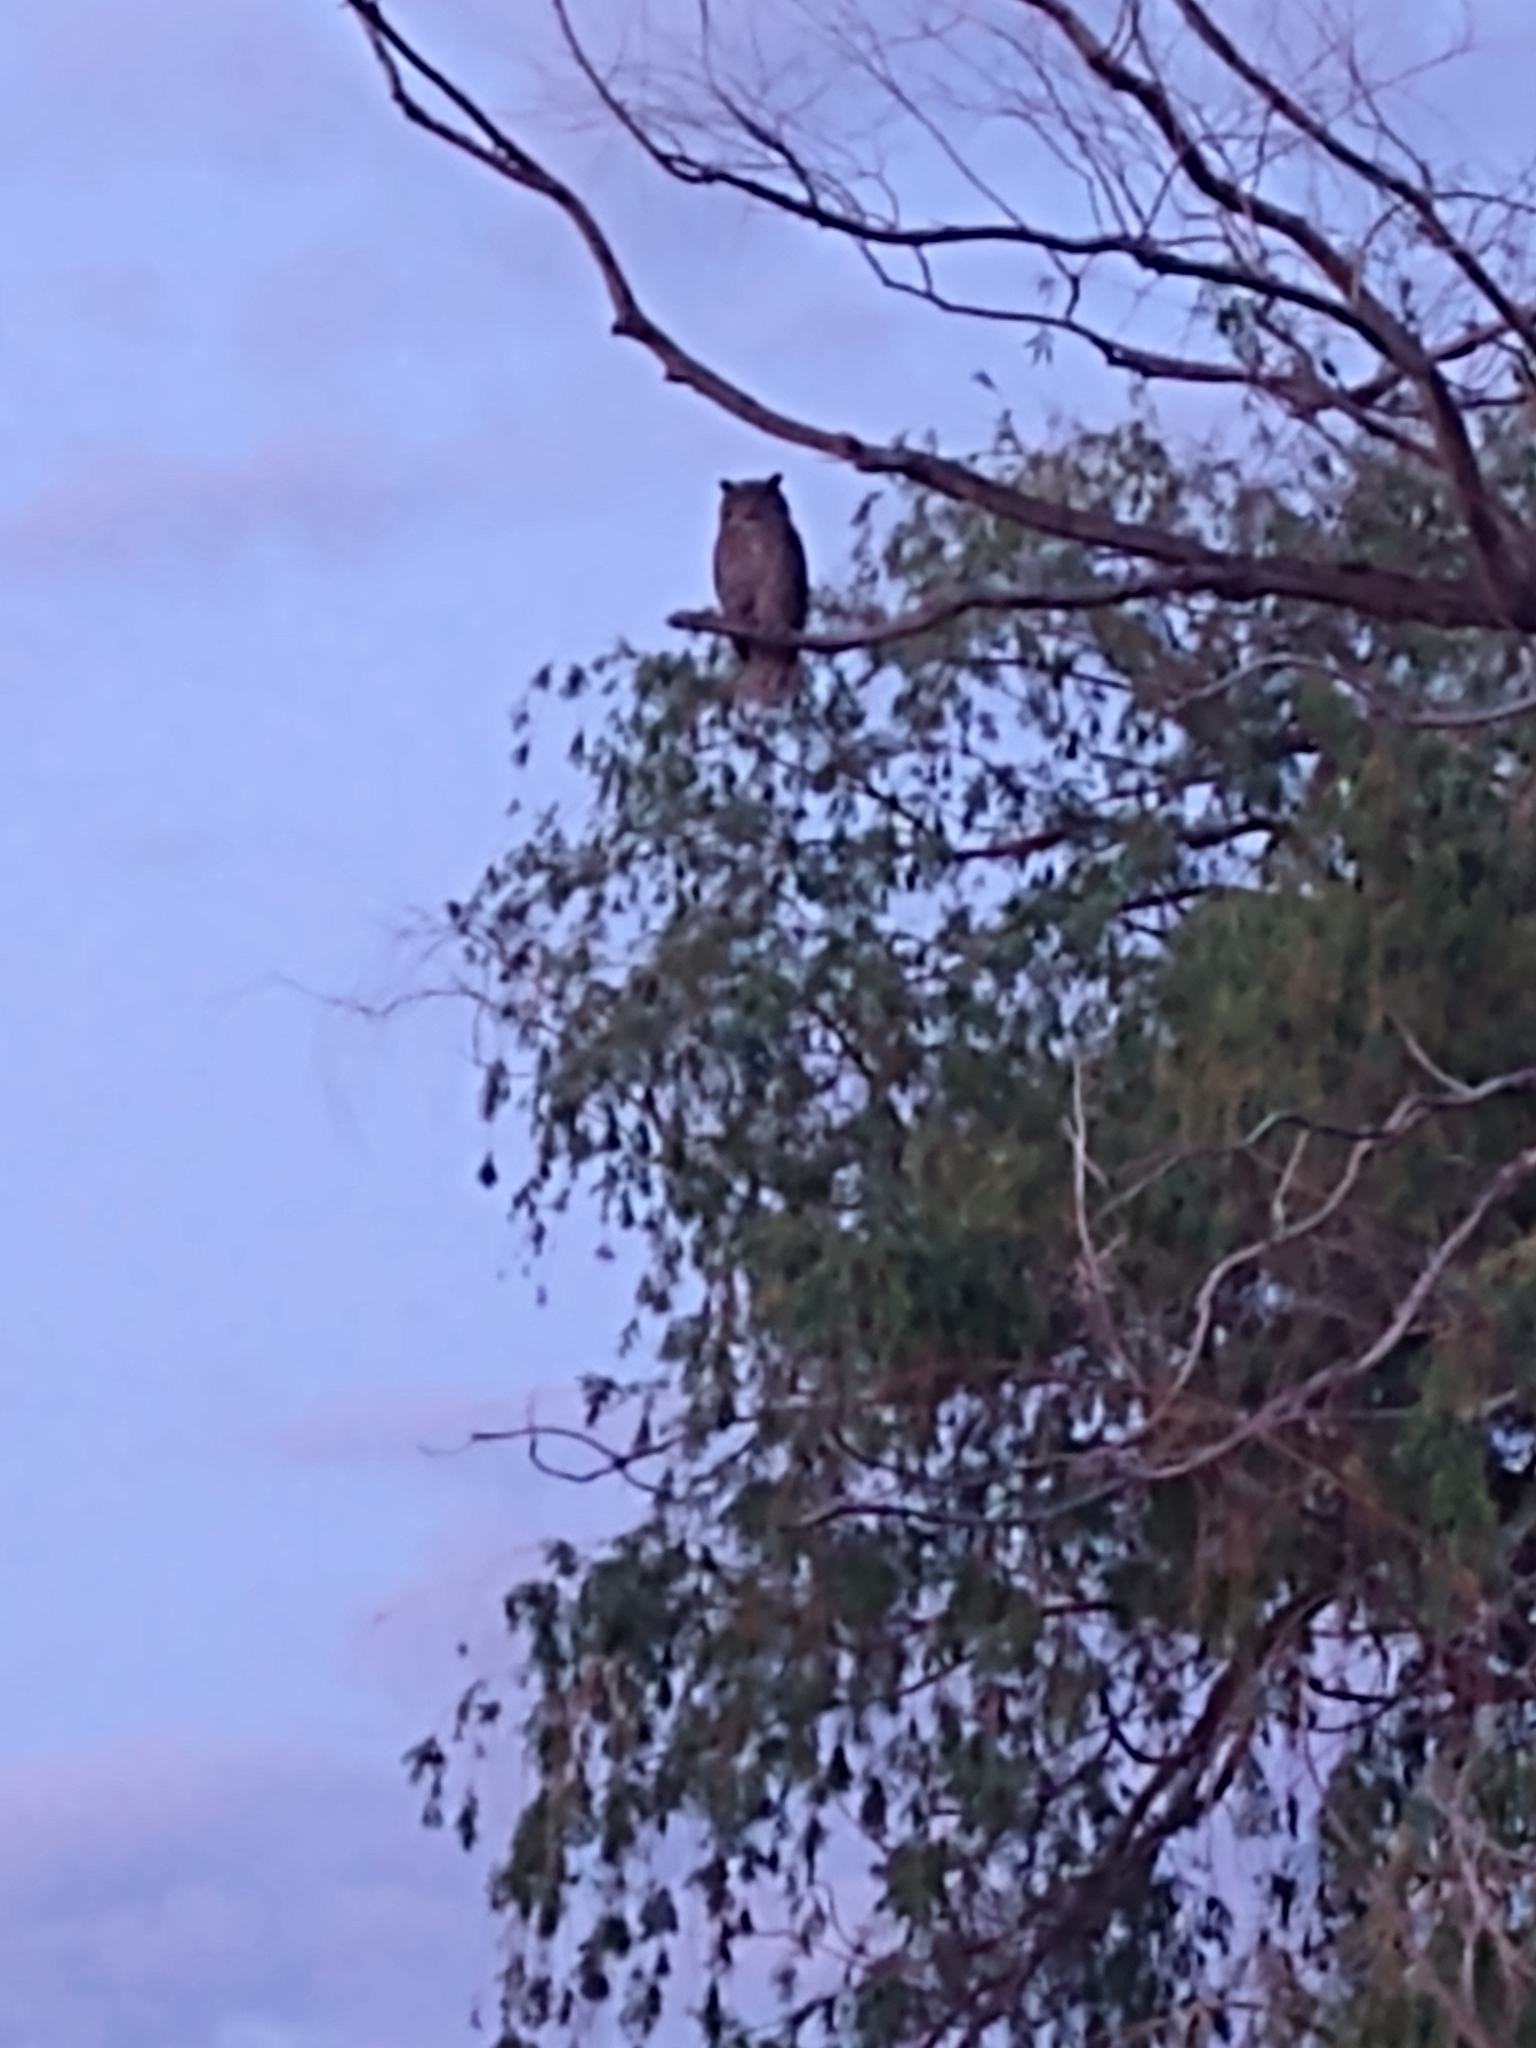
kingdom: Animalia
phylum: Chordata
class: Aves
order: Strigiformes
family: Strigidae
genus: Bubo
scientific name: Bubo virginianus
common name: Great horned owl
